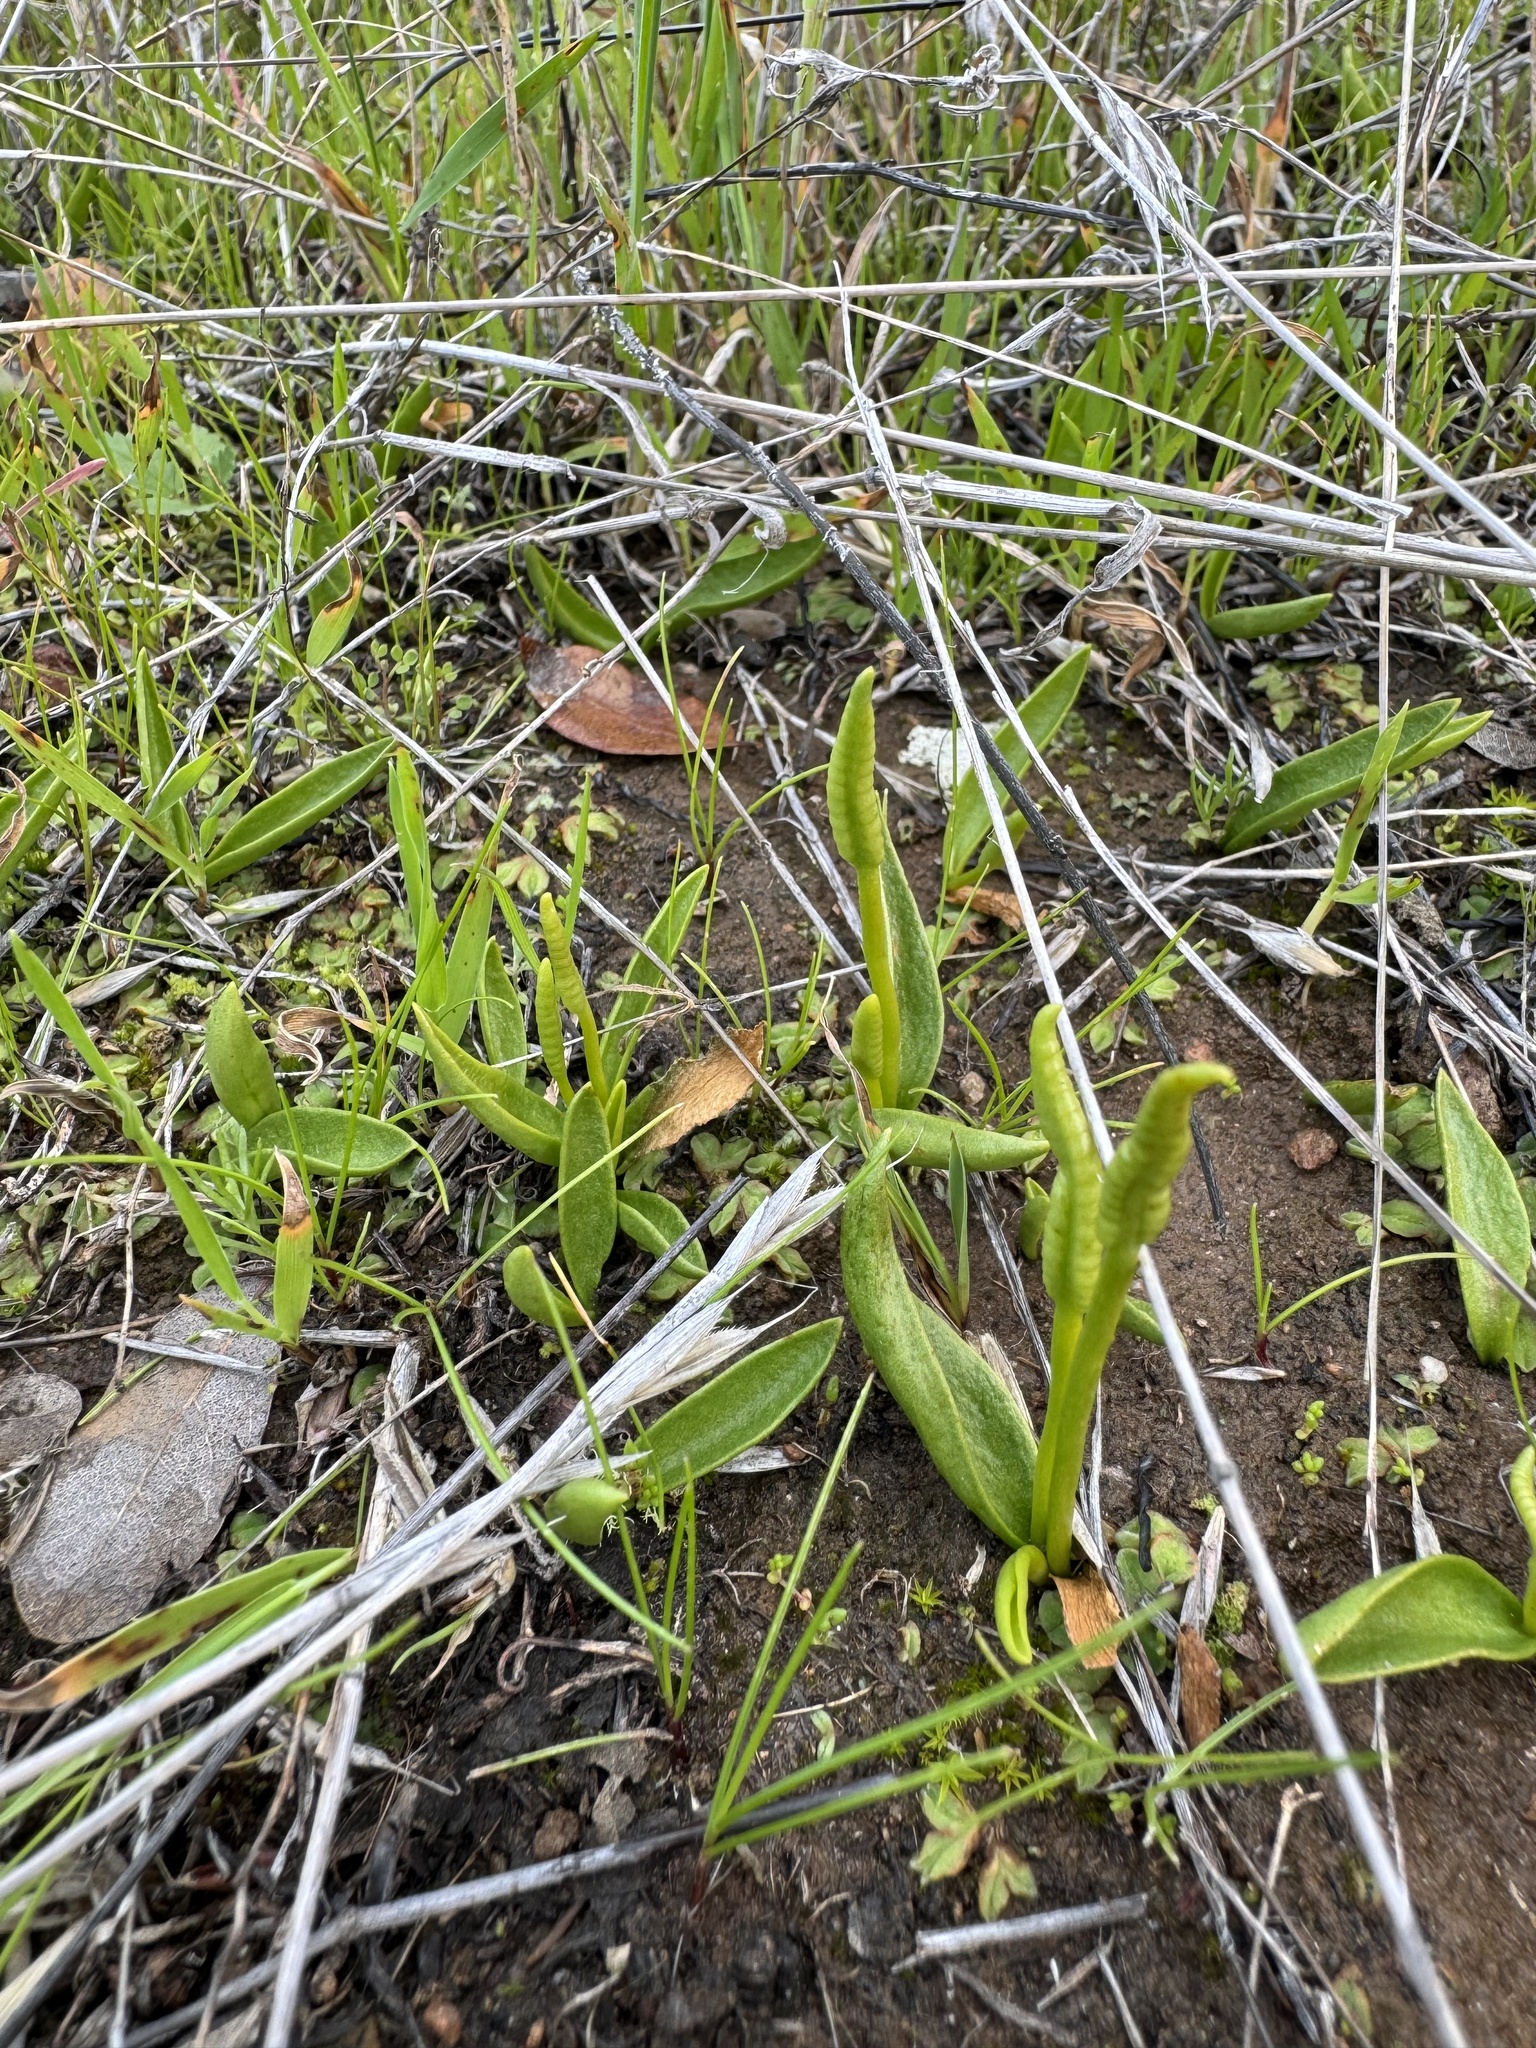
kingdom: Plantae
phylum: Tracheophyta
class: Polypodiopsida
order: Ophioglossales
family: Ophioglossaceae
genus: Ophioglossum
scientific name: Ophioglossum californicum
